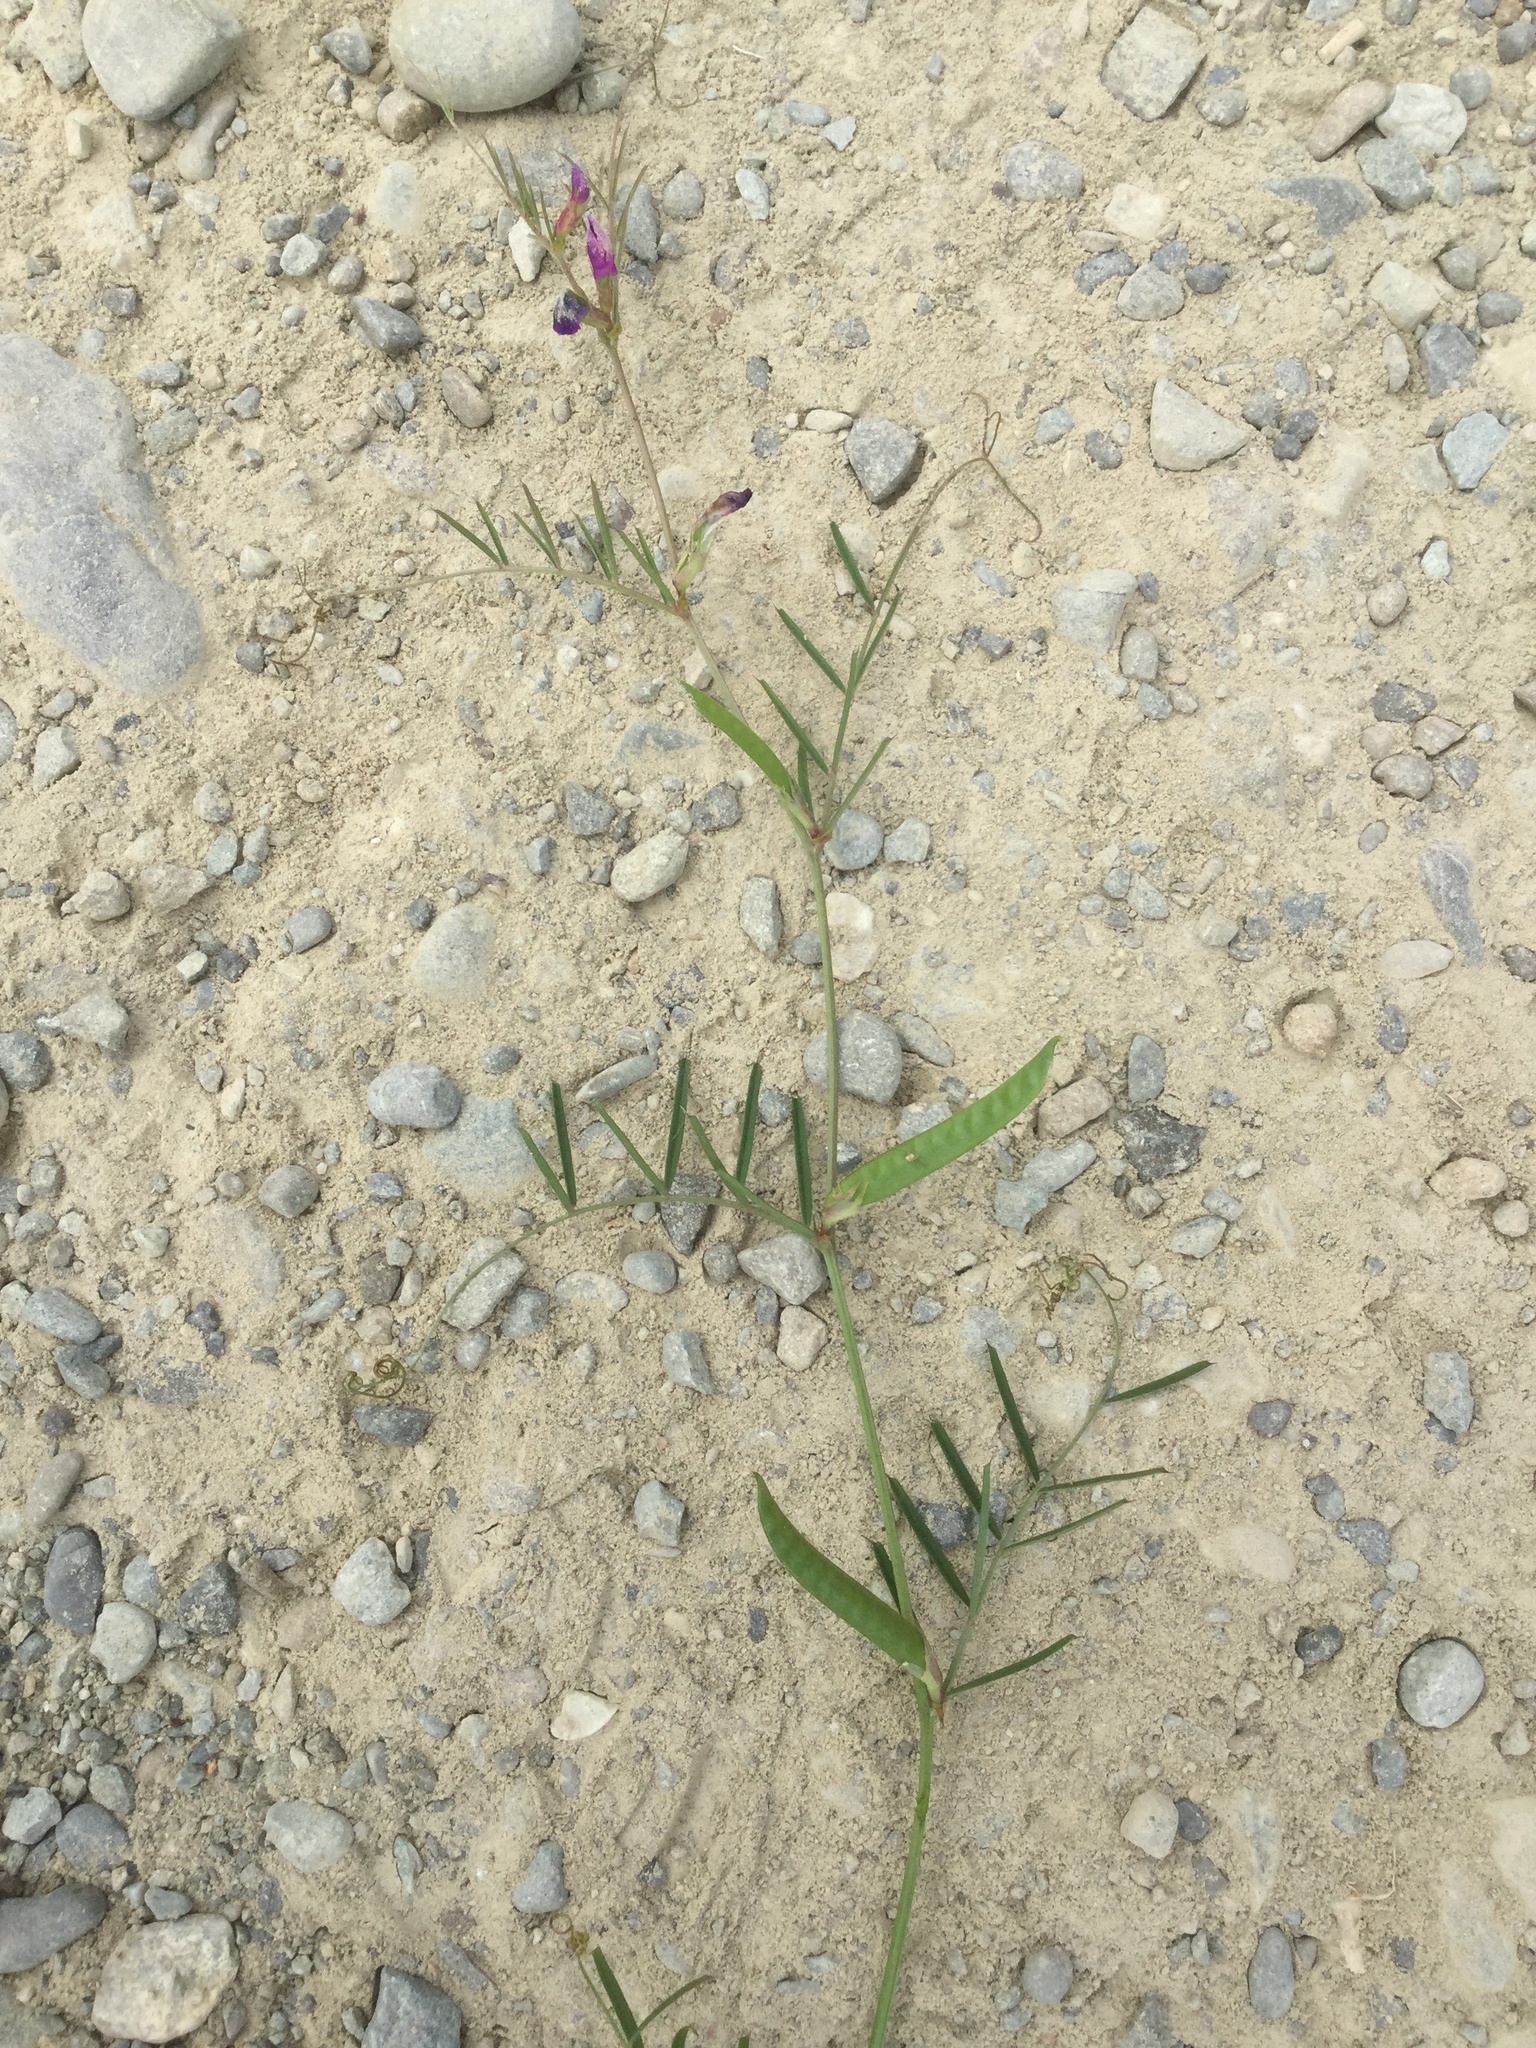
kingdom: Plantae
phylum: Tracheophyta
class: Magnoliopsida
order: Fabales
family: Fabaceae
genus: Vicia
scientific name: Vicia sativa
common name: Garden vetch
